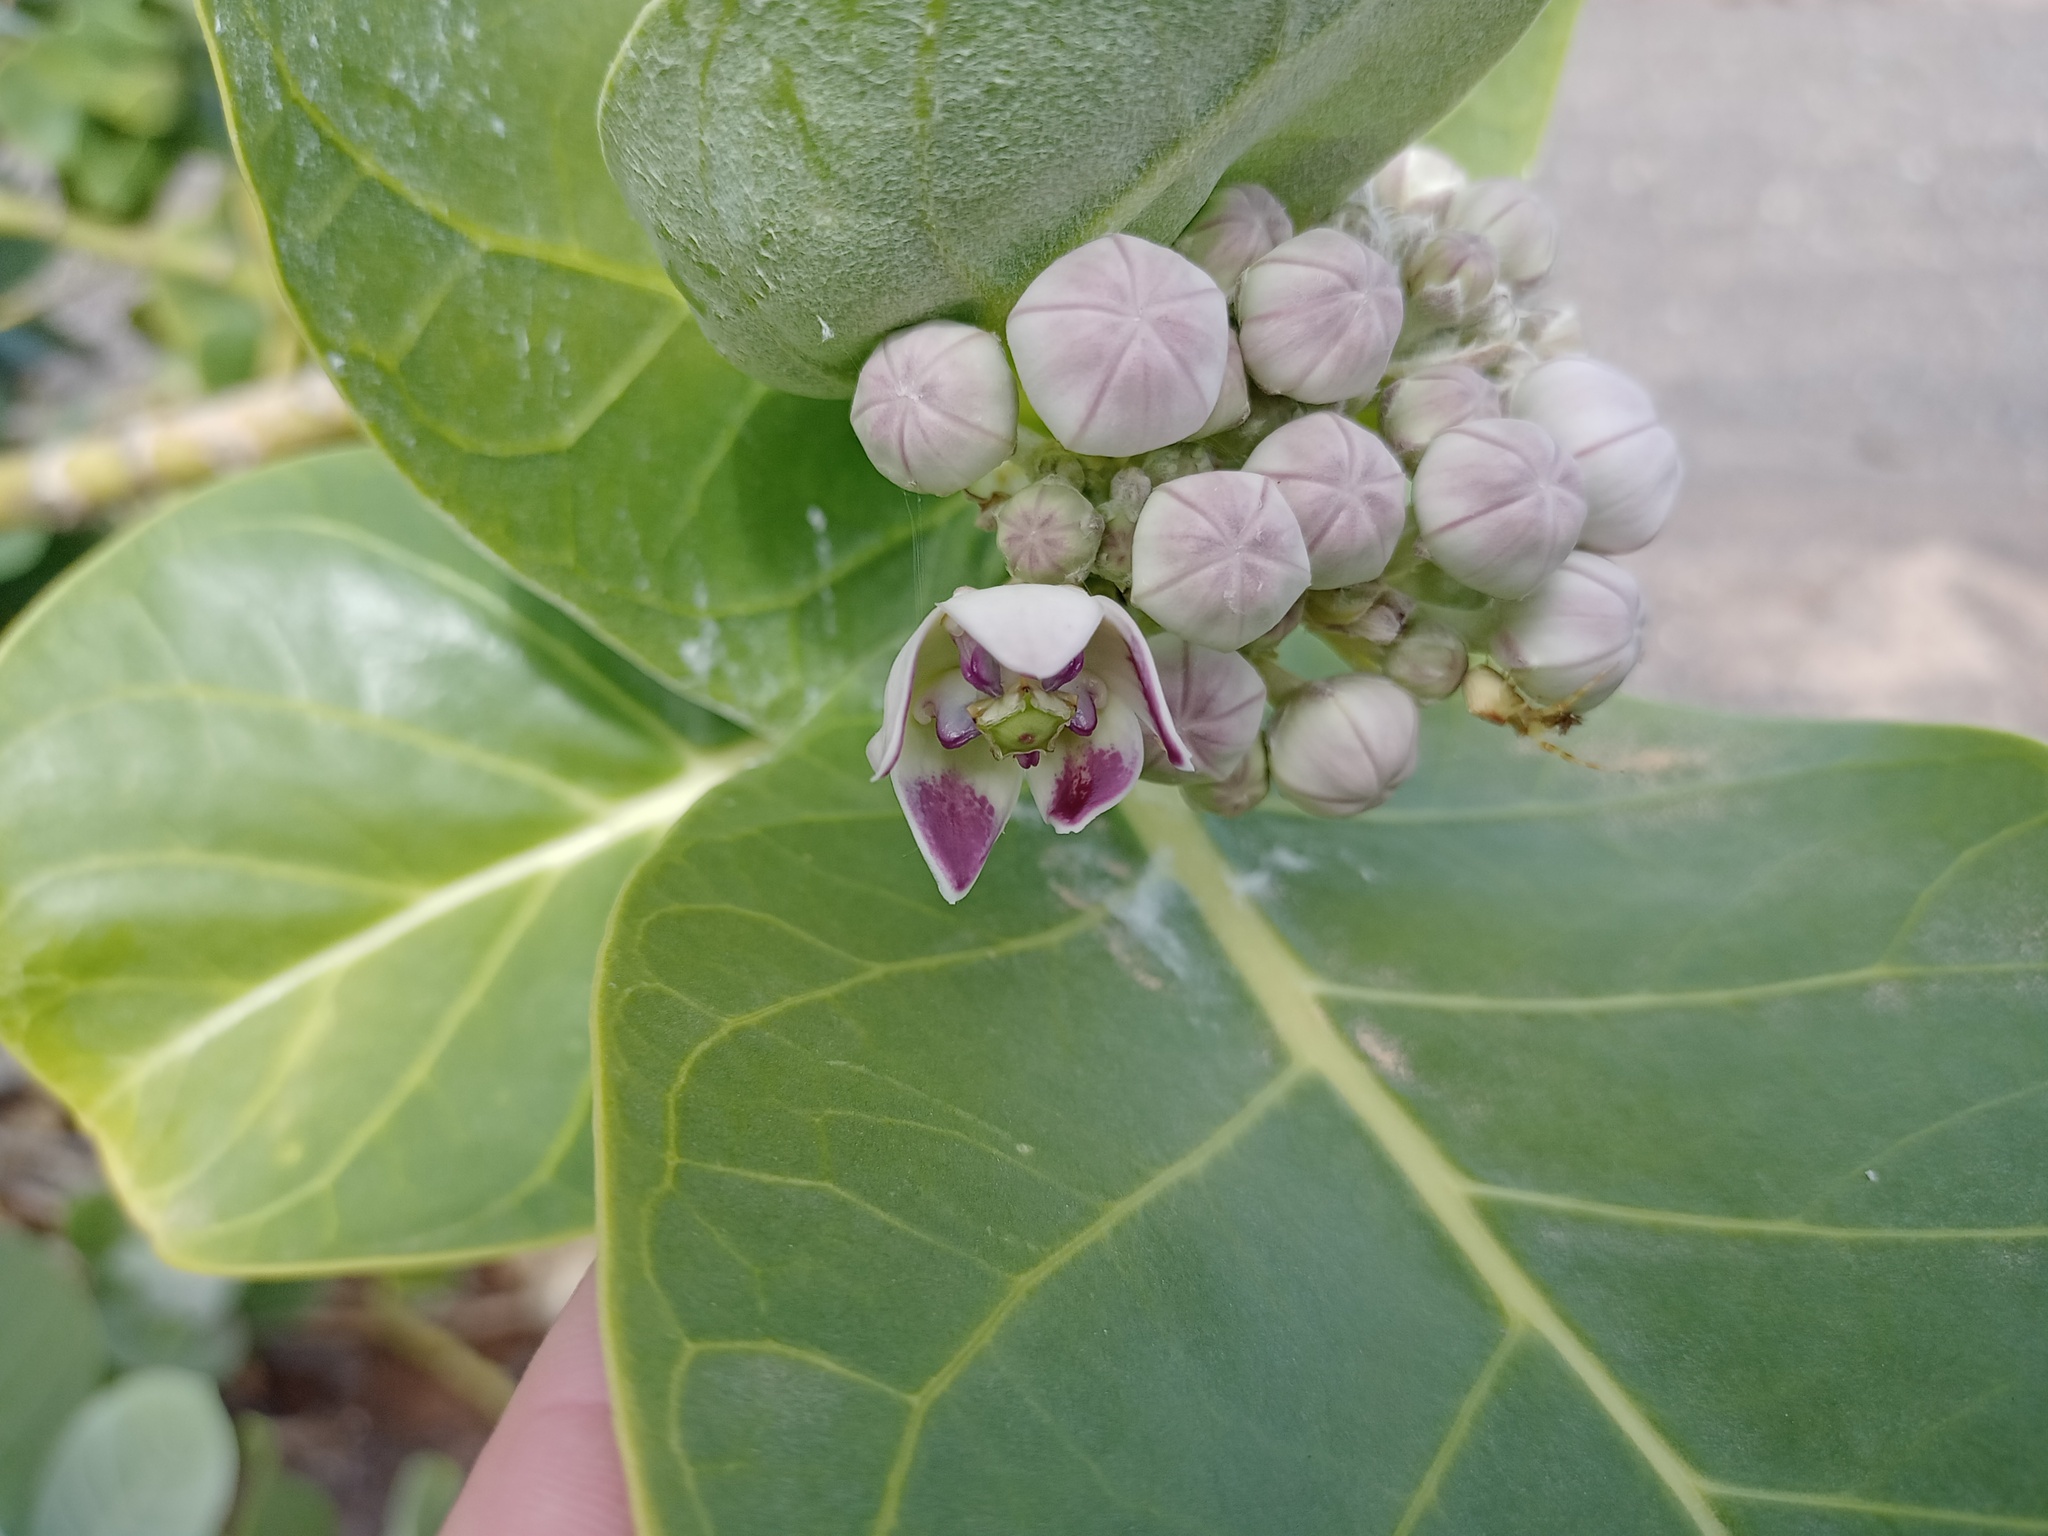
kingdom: Plantae
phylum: Tracheophyta
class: Magnoliopsida
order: Gentianales
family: Apocynaceae
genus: Calotropis
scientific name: Calotropis procera
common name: Roostertree
